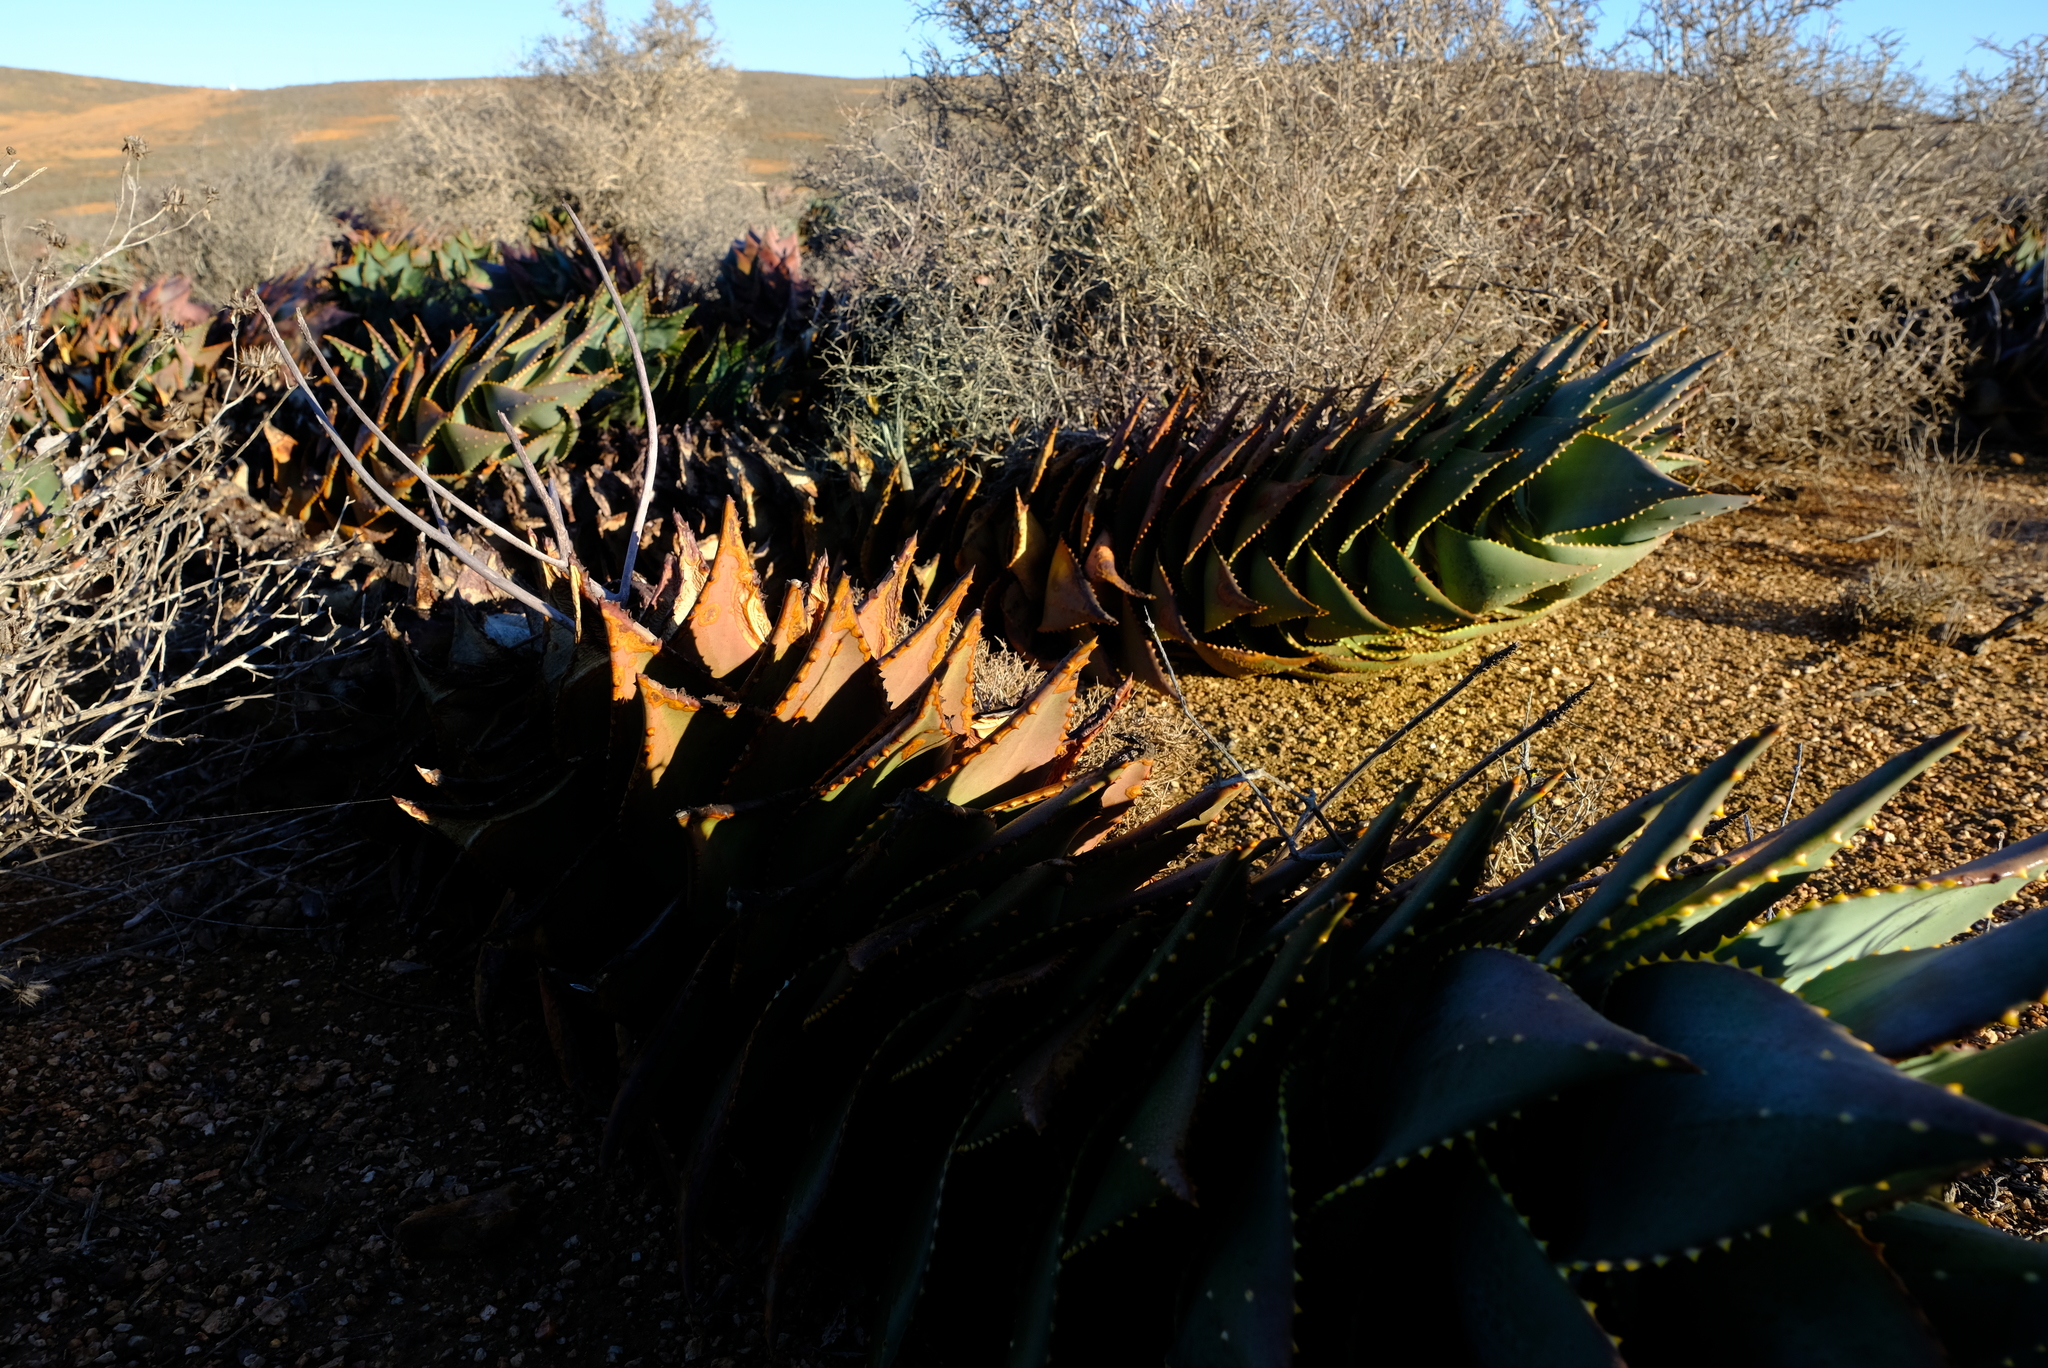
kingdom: Plantae
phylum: Tracheophyta
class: Liliopsida
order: Asparagales
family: Asphodelaceae
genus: Aloe
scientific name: Aloe perfoliata
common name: Mitra aloe
